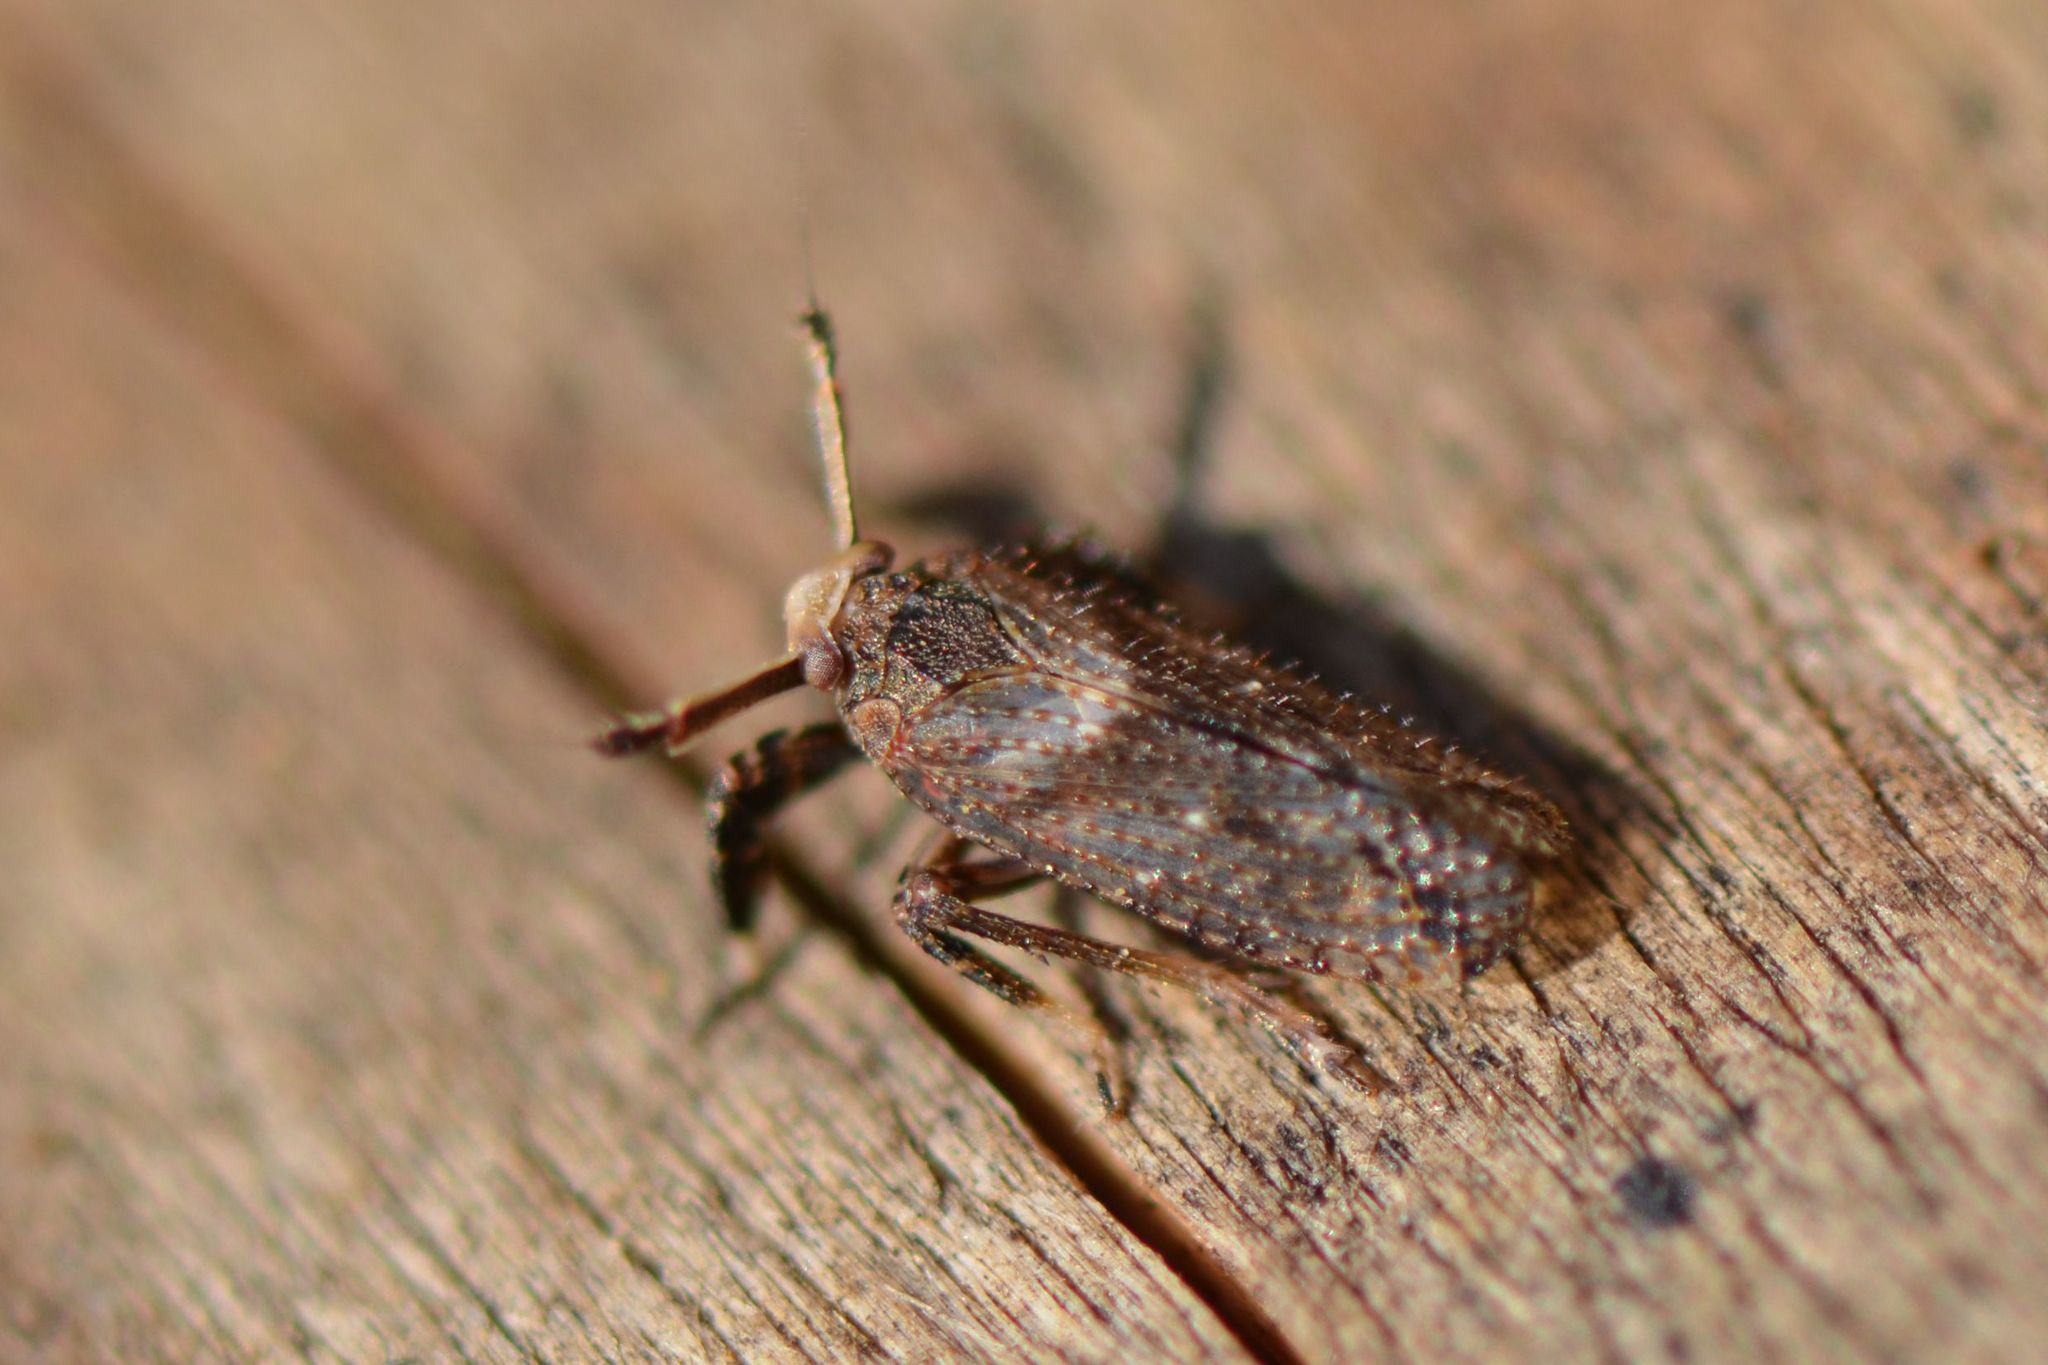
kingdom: Animalia
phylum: Arthropoda
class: Insecta
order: Hemiptera
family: Delphacidae
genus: Asiraca
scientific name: Asiraca clavicornis
